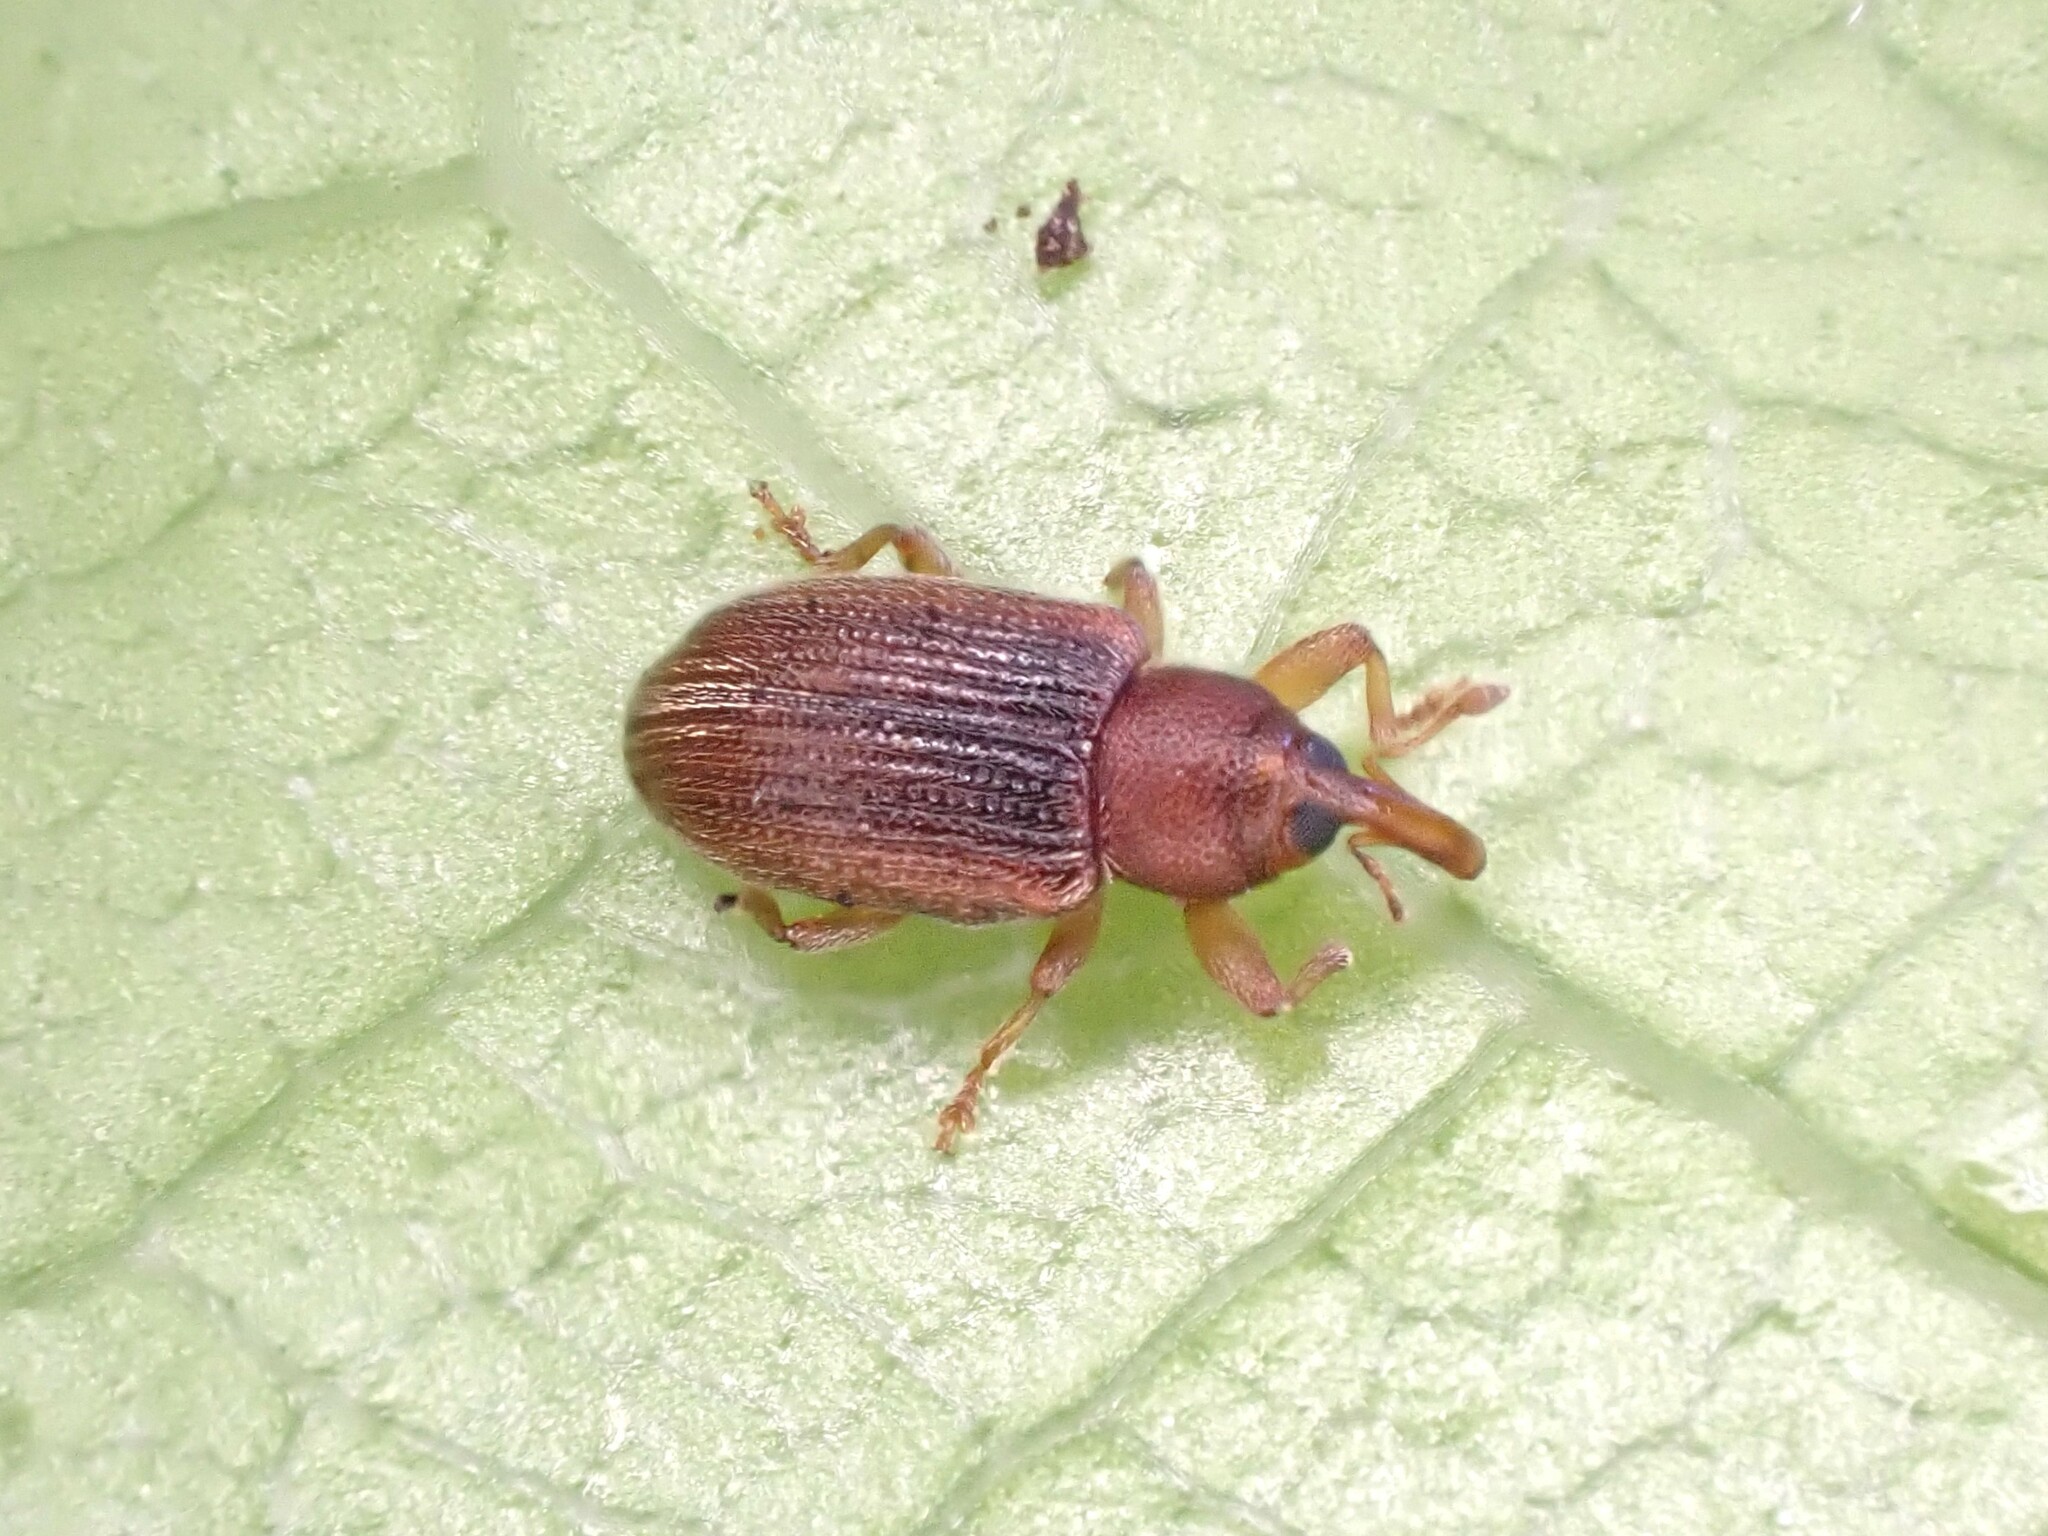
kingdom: Animalia
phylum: Arthropoda
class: Insecta
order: Coleoptera
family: Curculionidae
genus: Aneuma
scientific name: Aneuma
